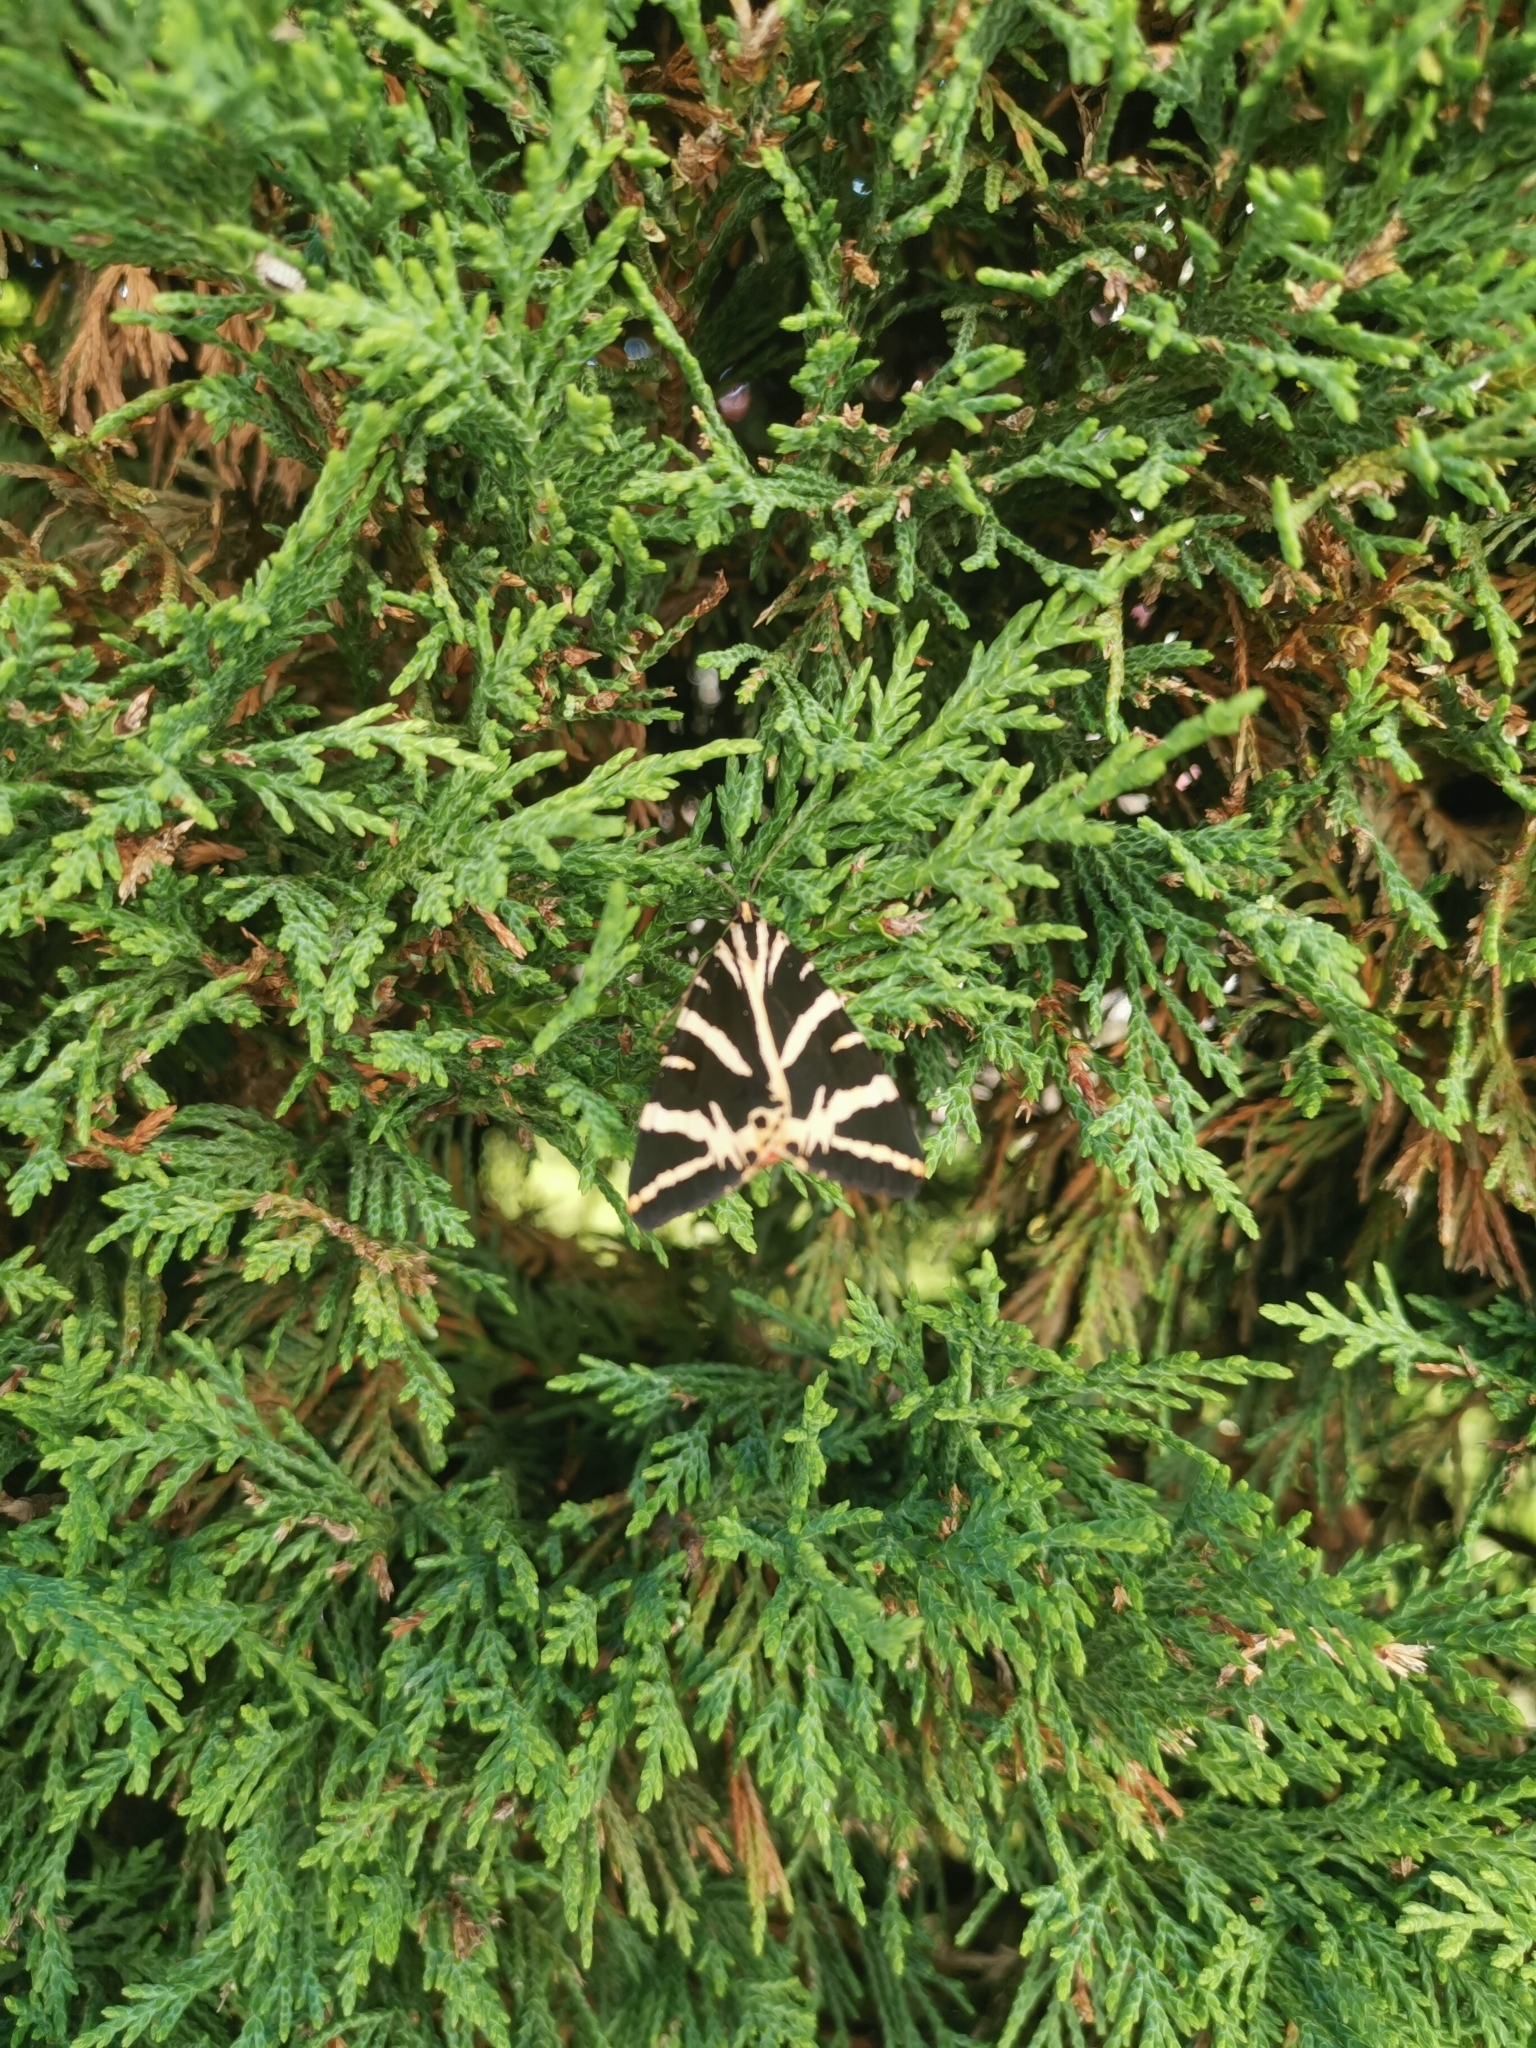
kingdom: Animalia
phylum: Arthropoda
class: Insecta
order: Lepidoptera
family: Erebidae
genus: Euplagia
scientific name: Euplagia quadripunctaria
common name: Jersey tiger
